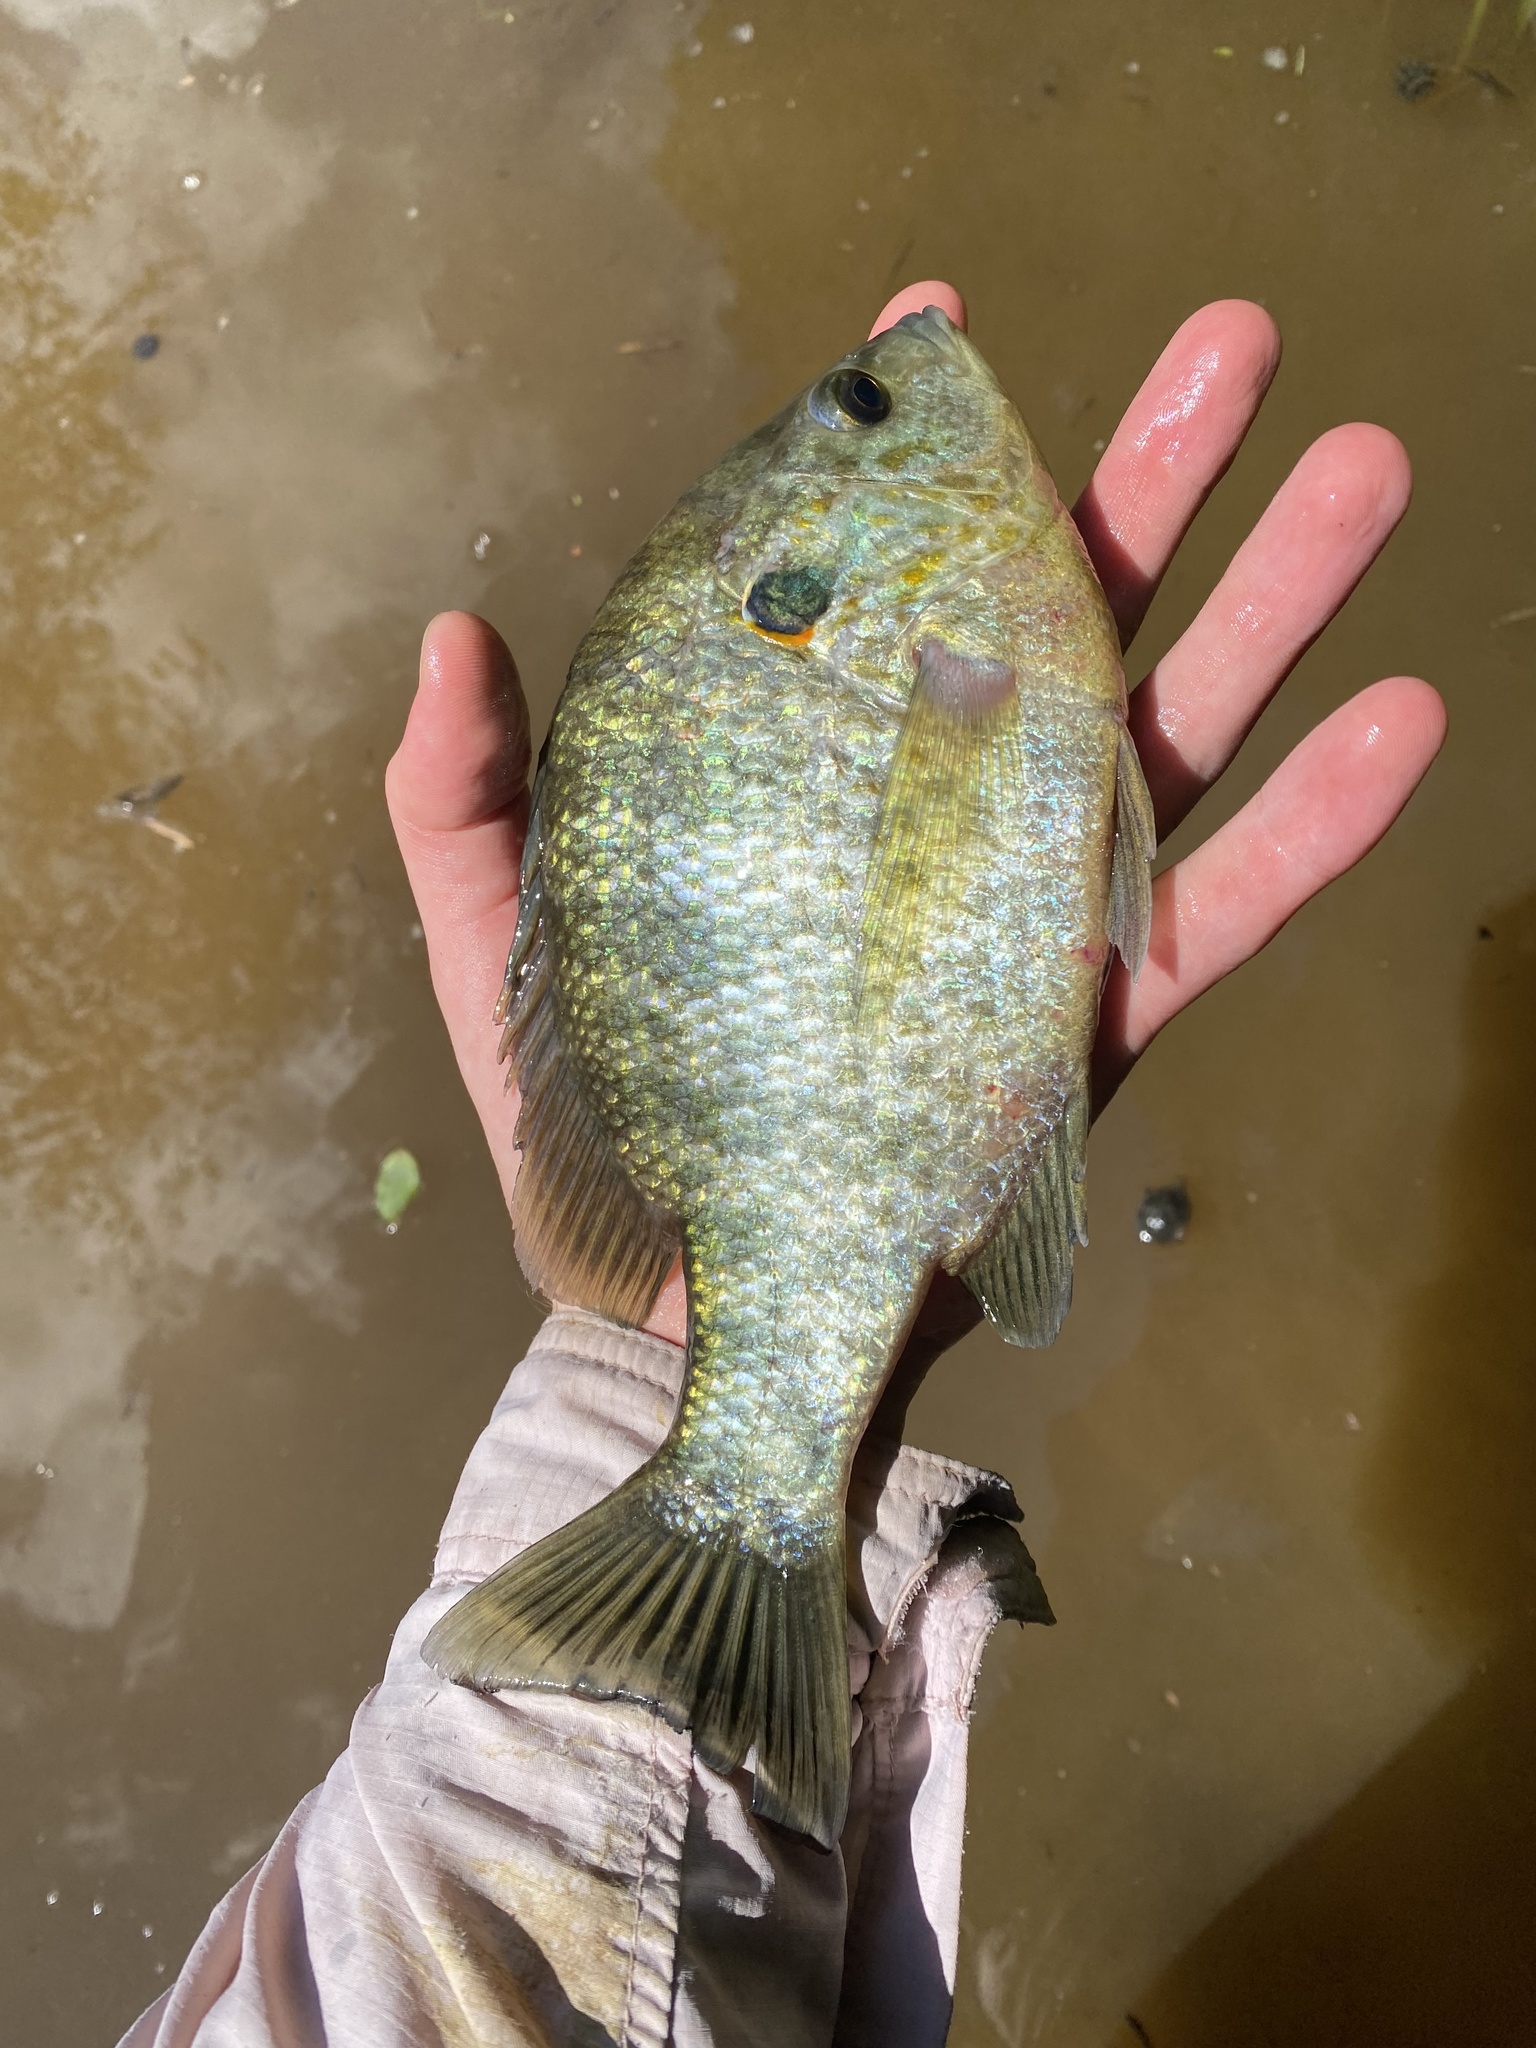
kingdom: Animalia
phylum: Chordata
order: Perciformes
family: Centrarchidae
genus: Lepomis
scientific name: Lepomis microlophus
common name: Redear sunfish
